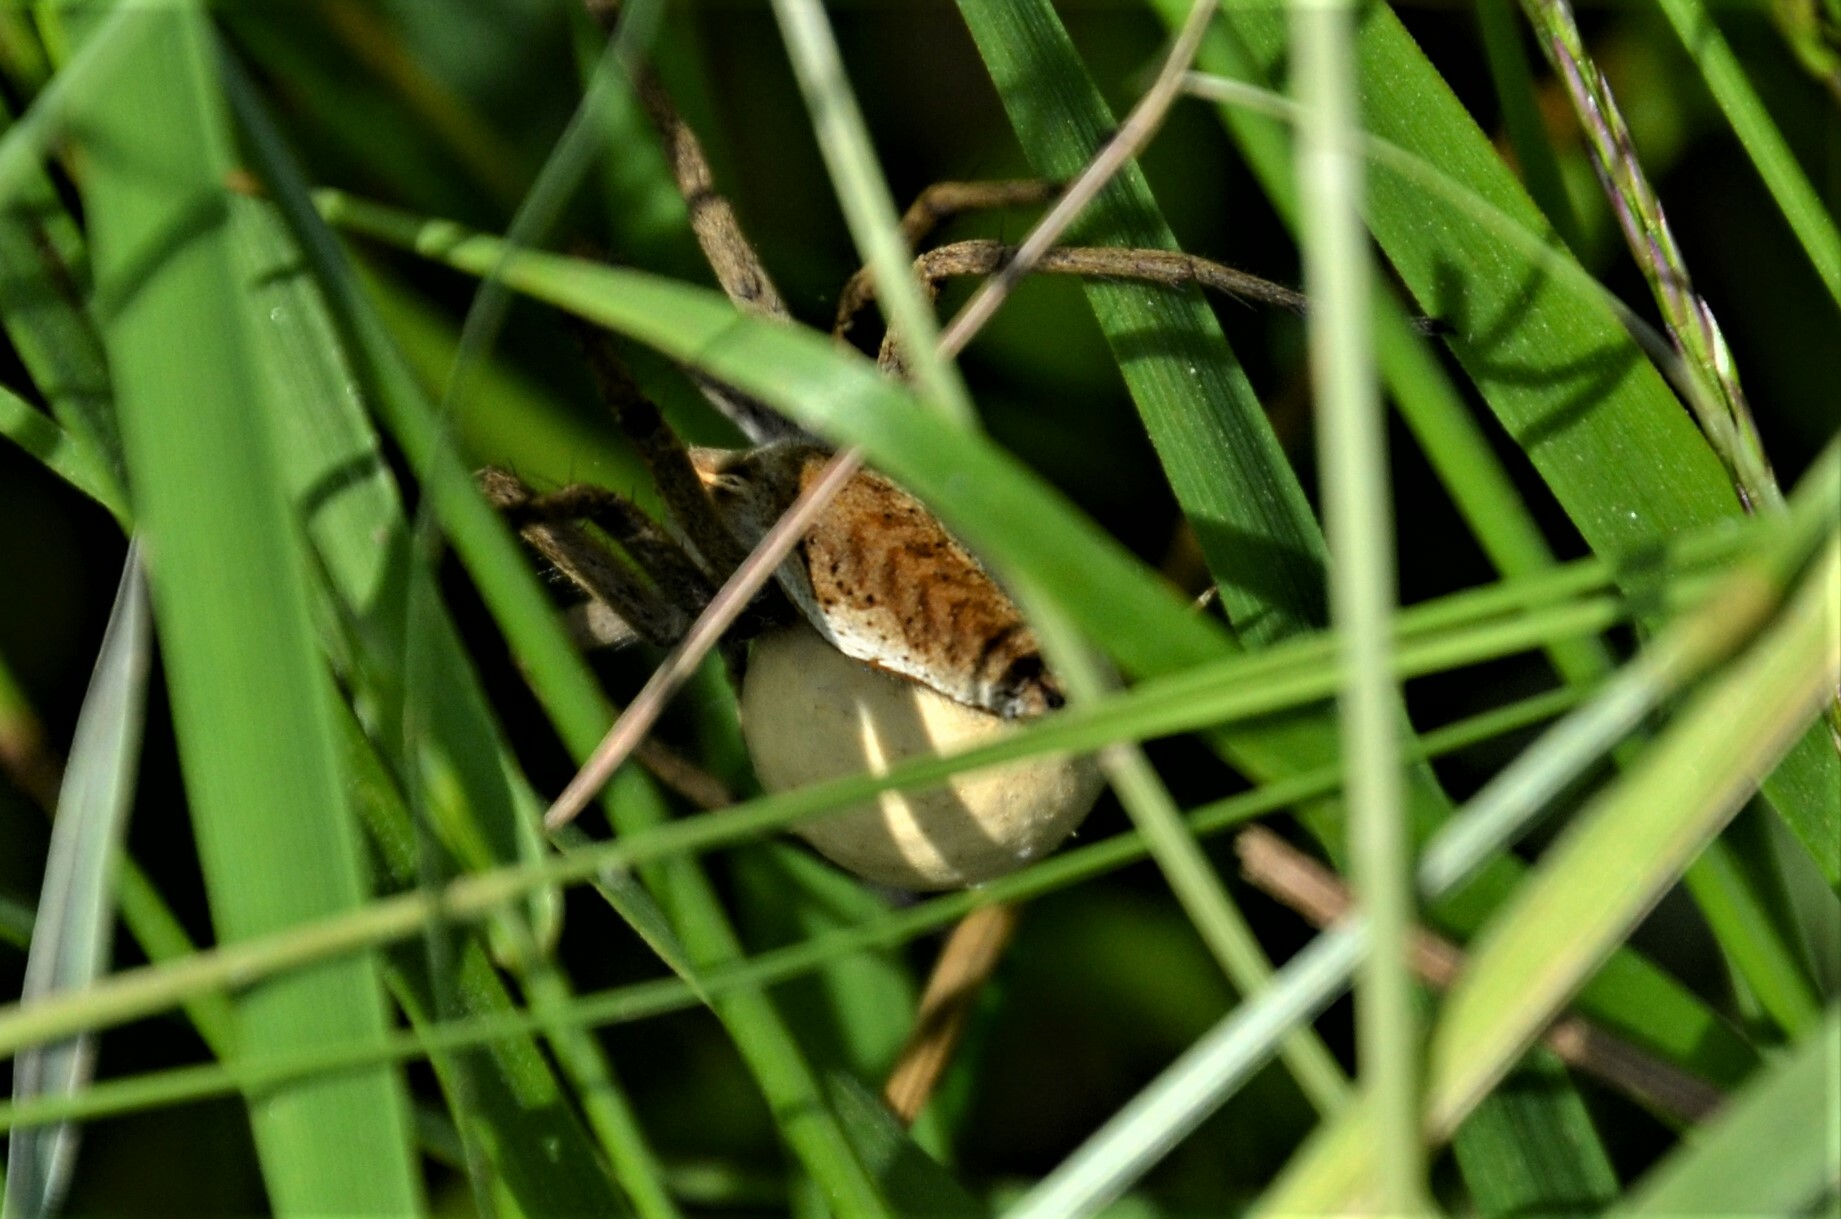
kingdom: Animalia
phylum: Arthropoda
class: Arachnida
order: Araneae
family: Pisauridae
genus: Pisaura
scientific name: Pisaura mirabilis
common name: Tent spider
